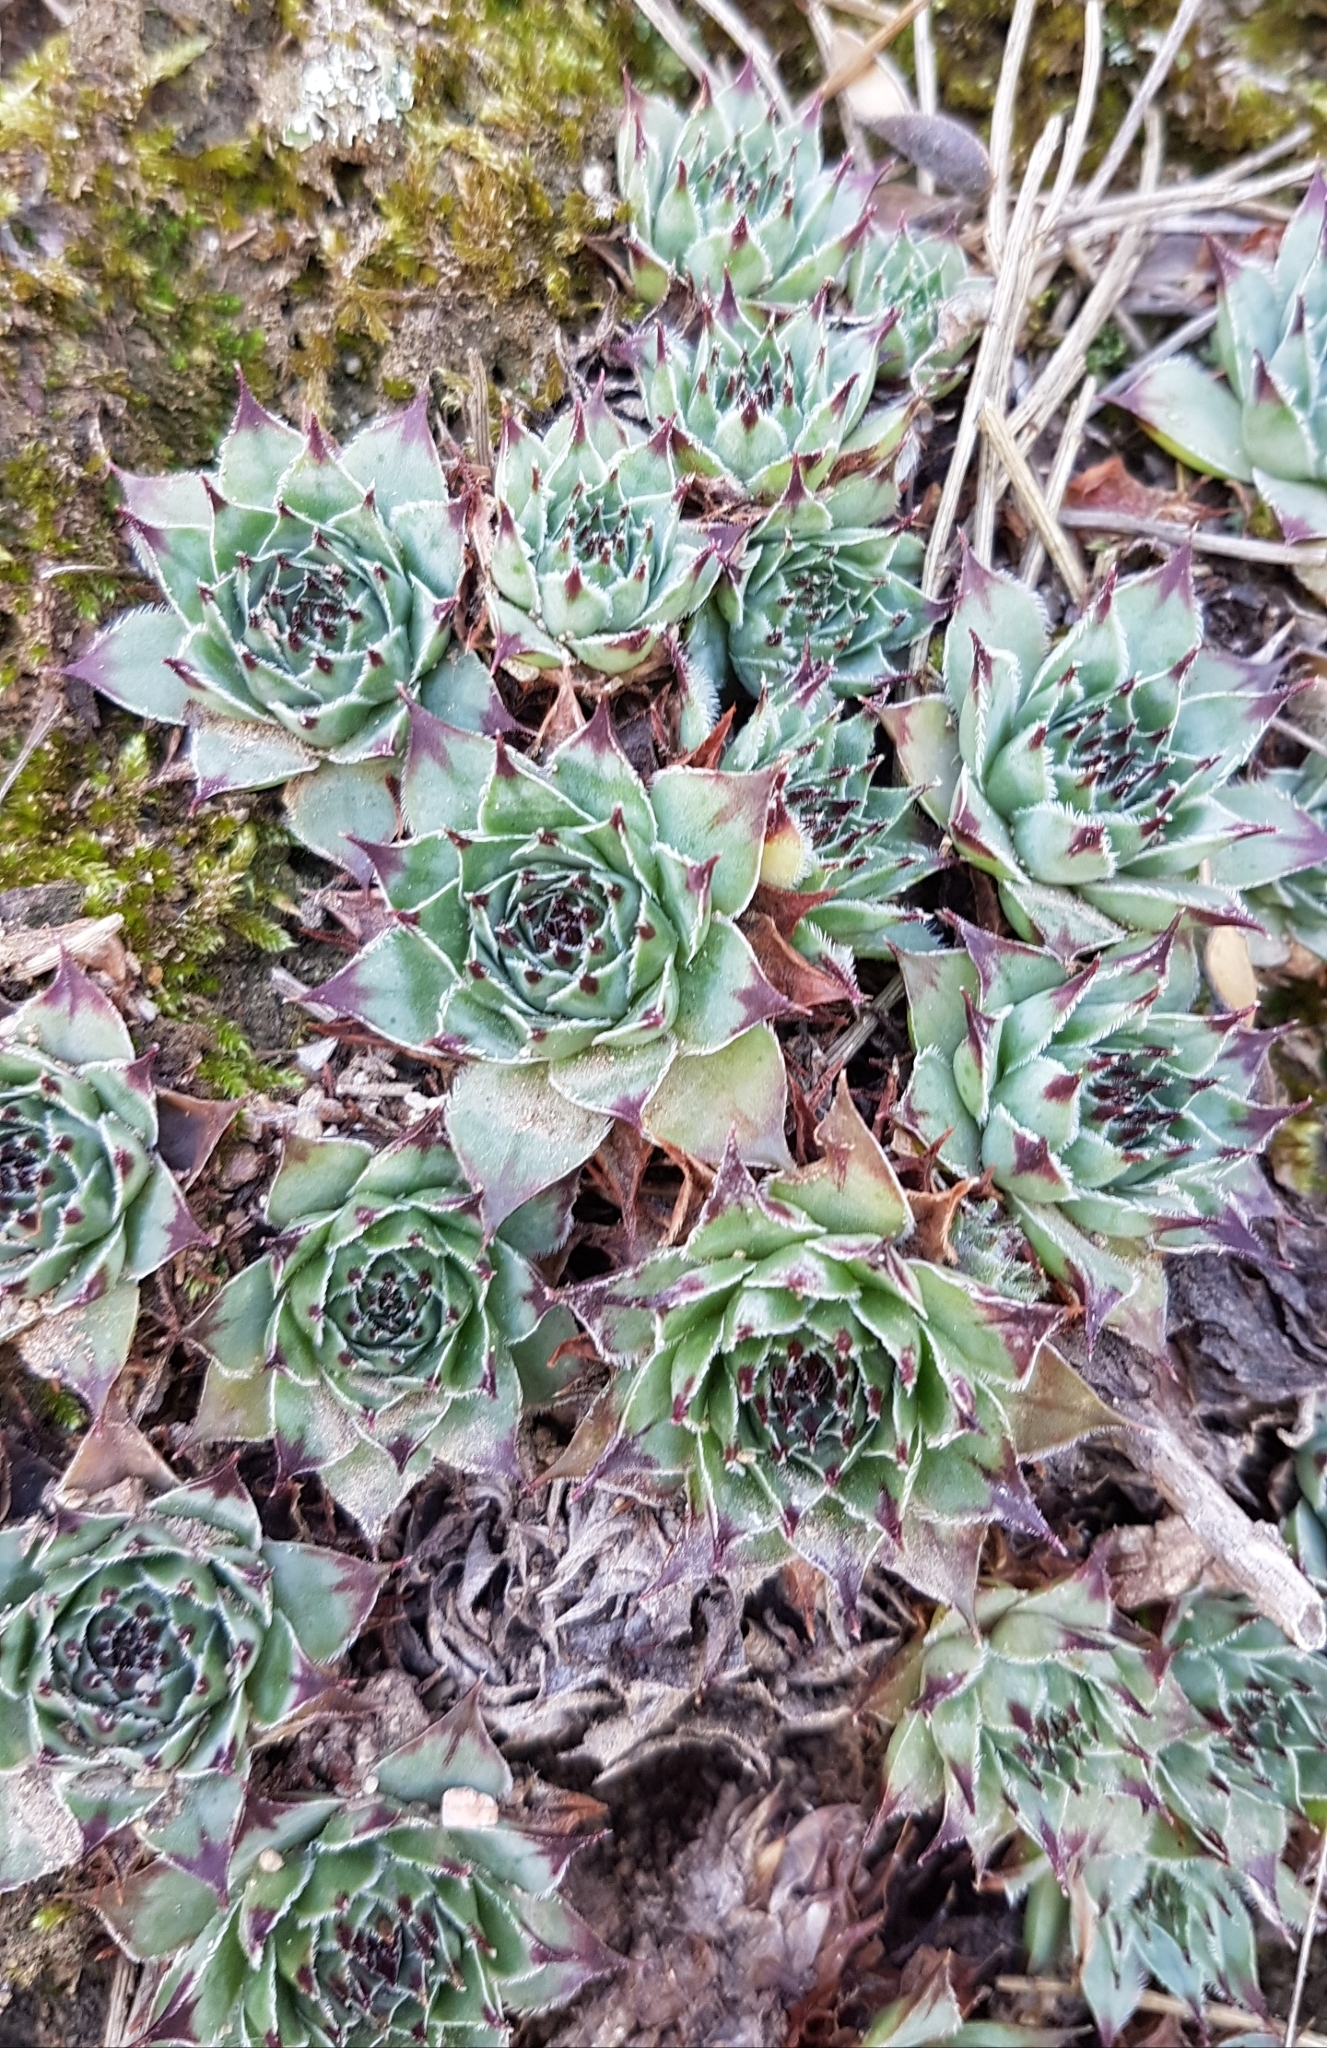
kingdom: Plantae
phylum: Tracheophyta
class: Magnoliopsida
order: Saxifragales
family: Crassulaceae
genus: Sempervivum
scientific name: Sempervivum tectorum
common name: House-leek
